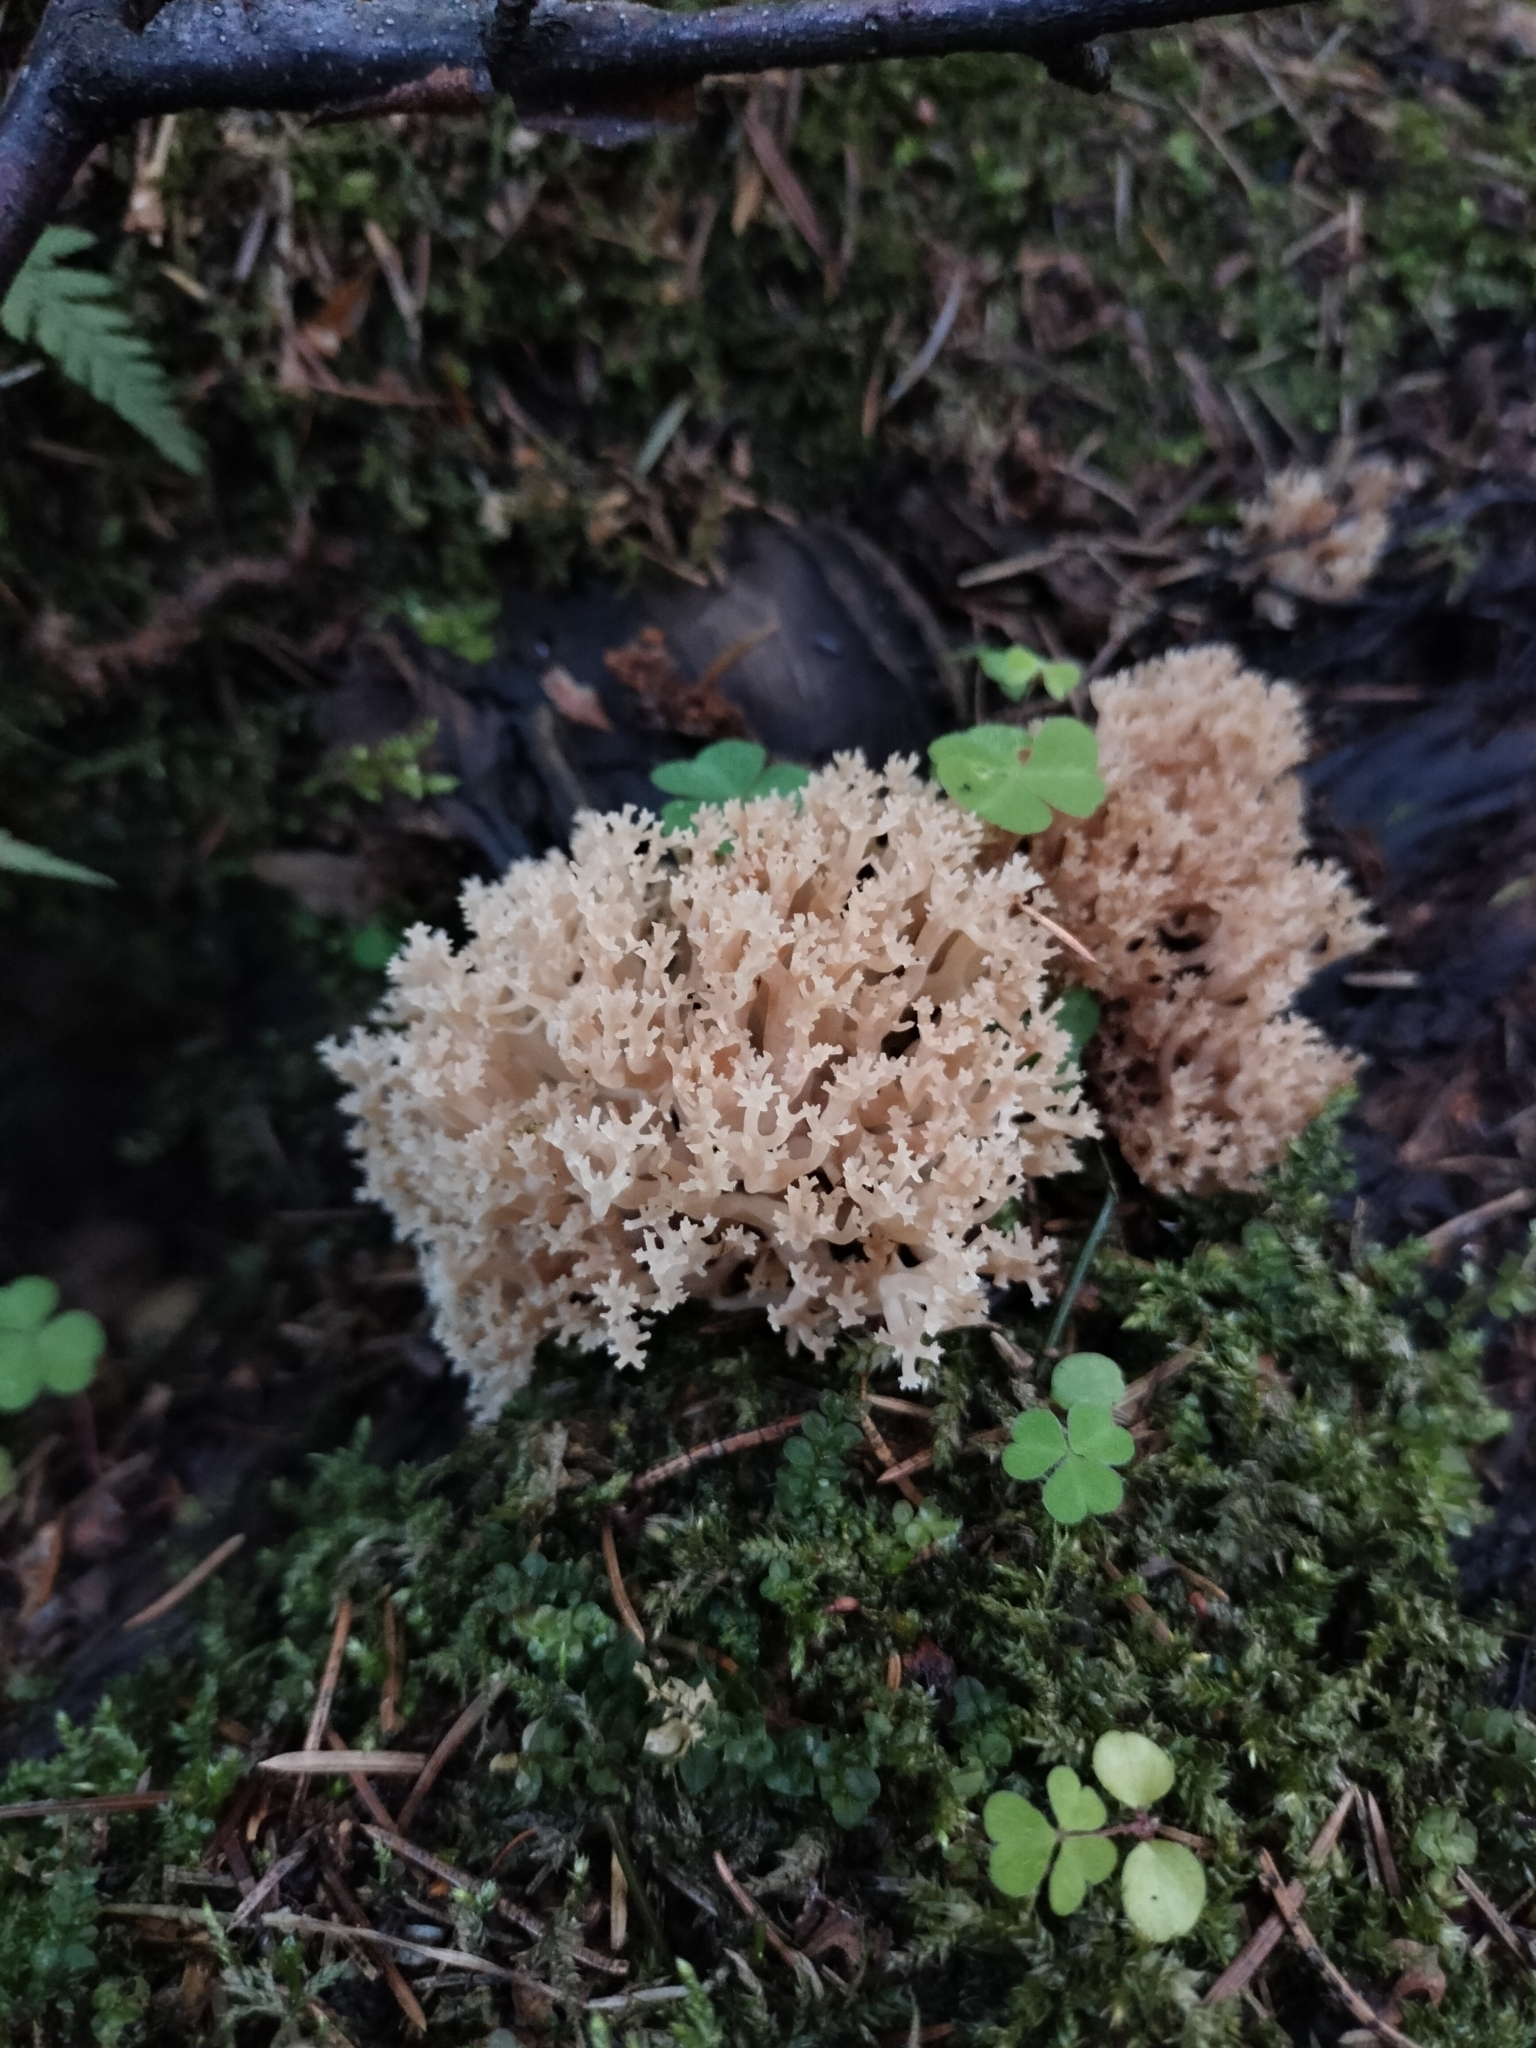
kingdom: Fungi
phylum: Basidiomycota
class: Agaricomycetes
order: Russulales
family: Auriscalpiaceae
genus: Artomyces
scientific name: Artomyces pyxidatus
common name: Crown-tipped coral fungus
